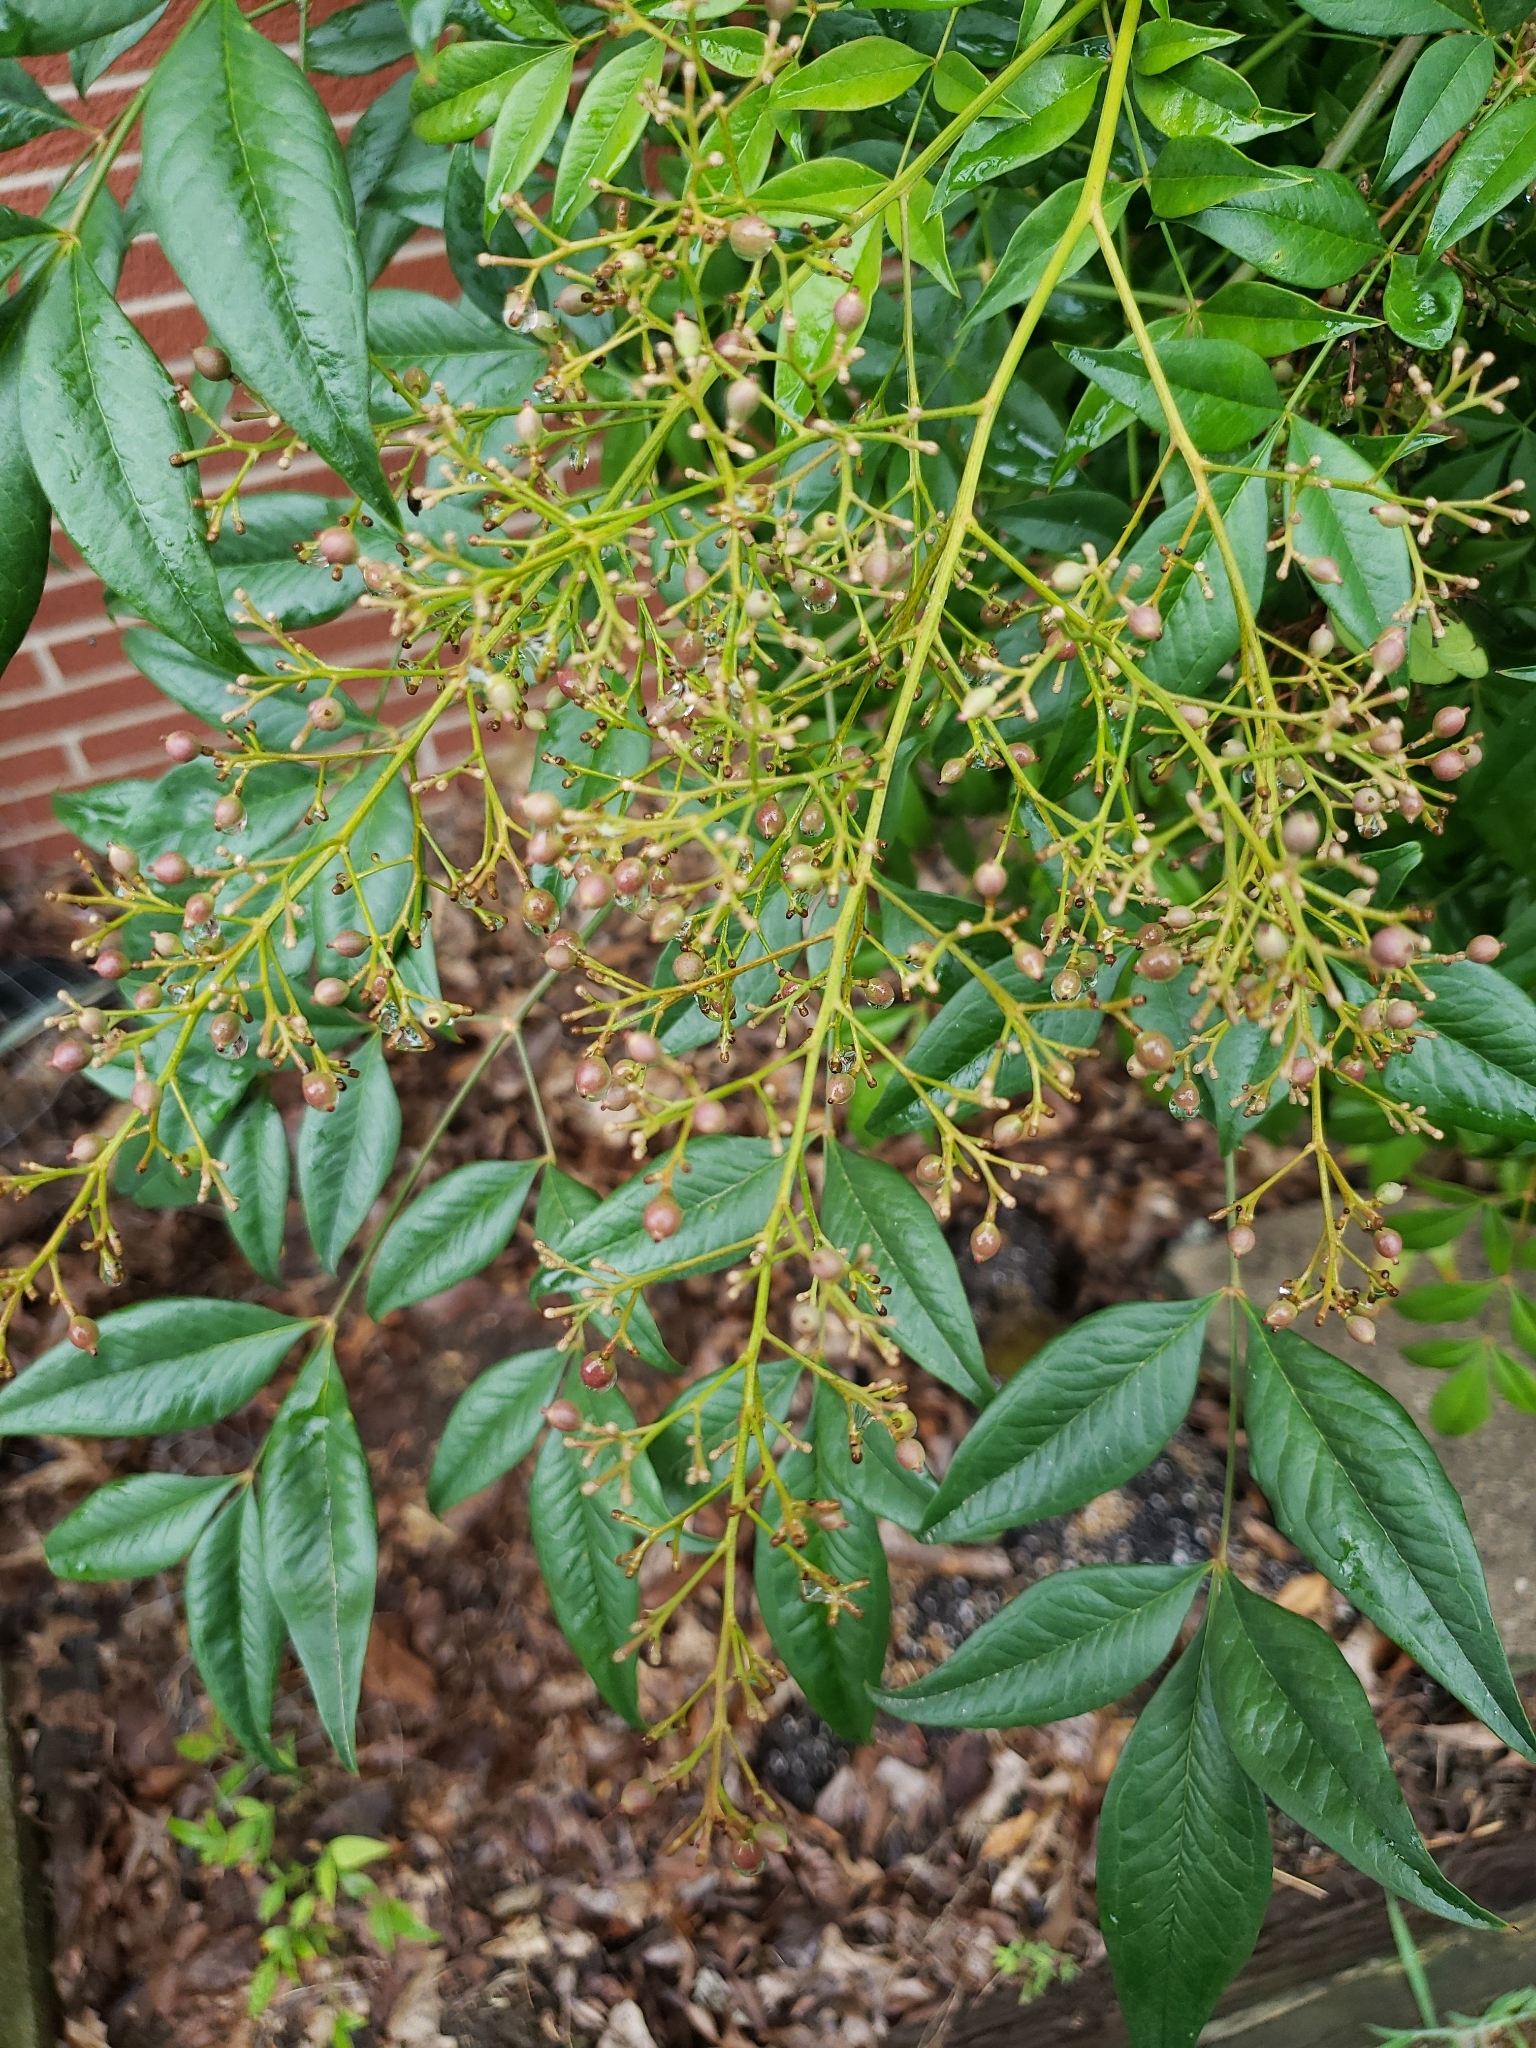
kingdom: Plantae
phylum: Tracheophyta
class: Magnoliopsida
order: Ranunculales
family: Berberidaceae
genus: Nandina
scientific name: Nandina domestica
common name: Sacred bamboo
